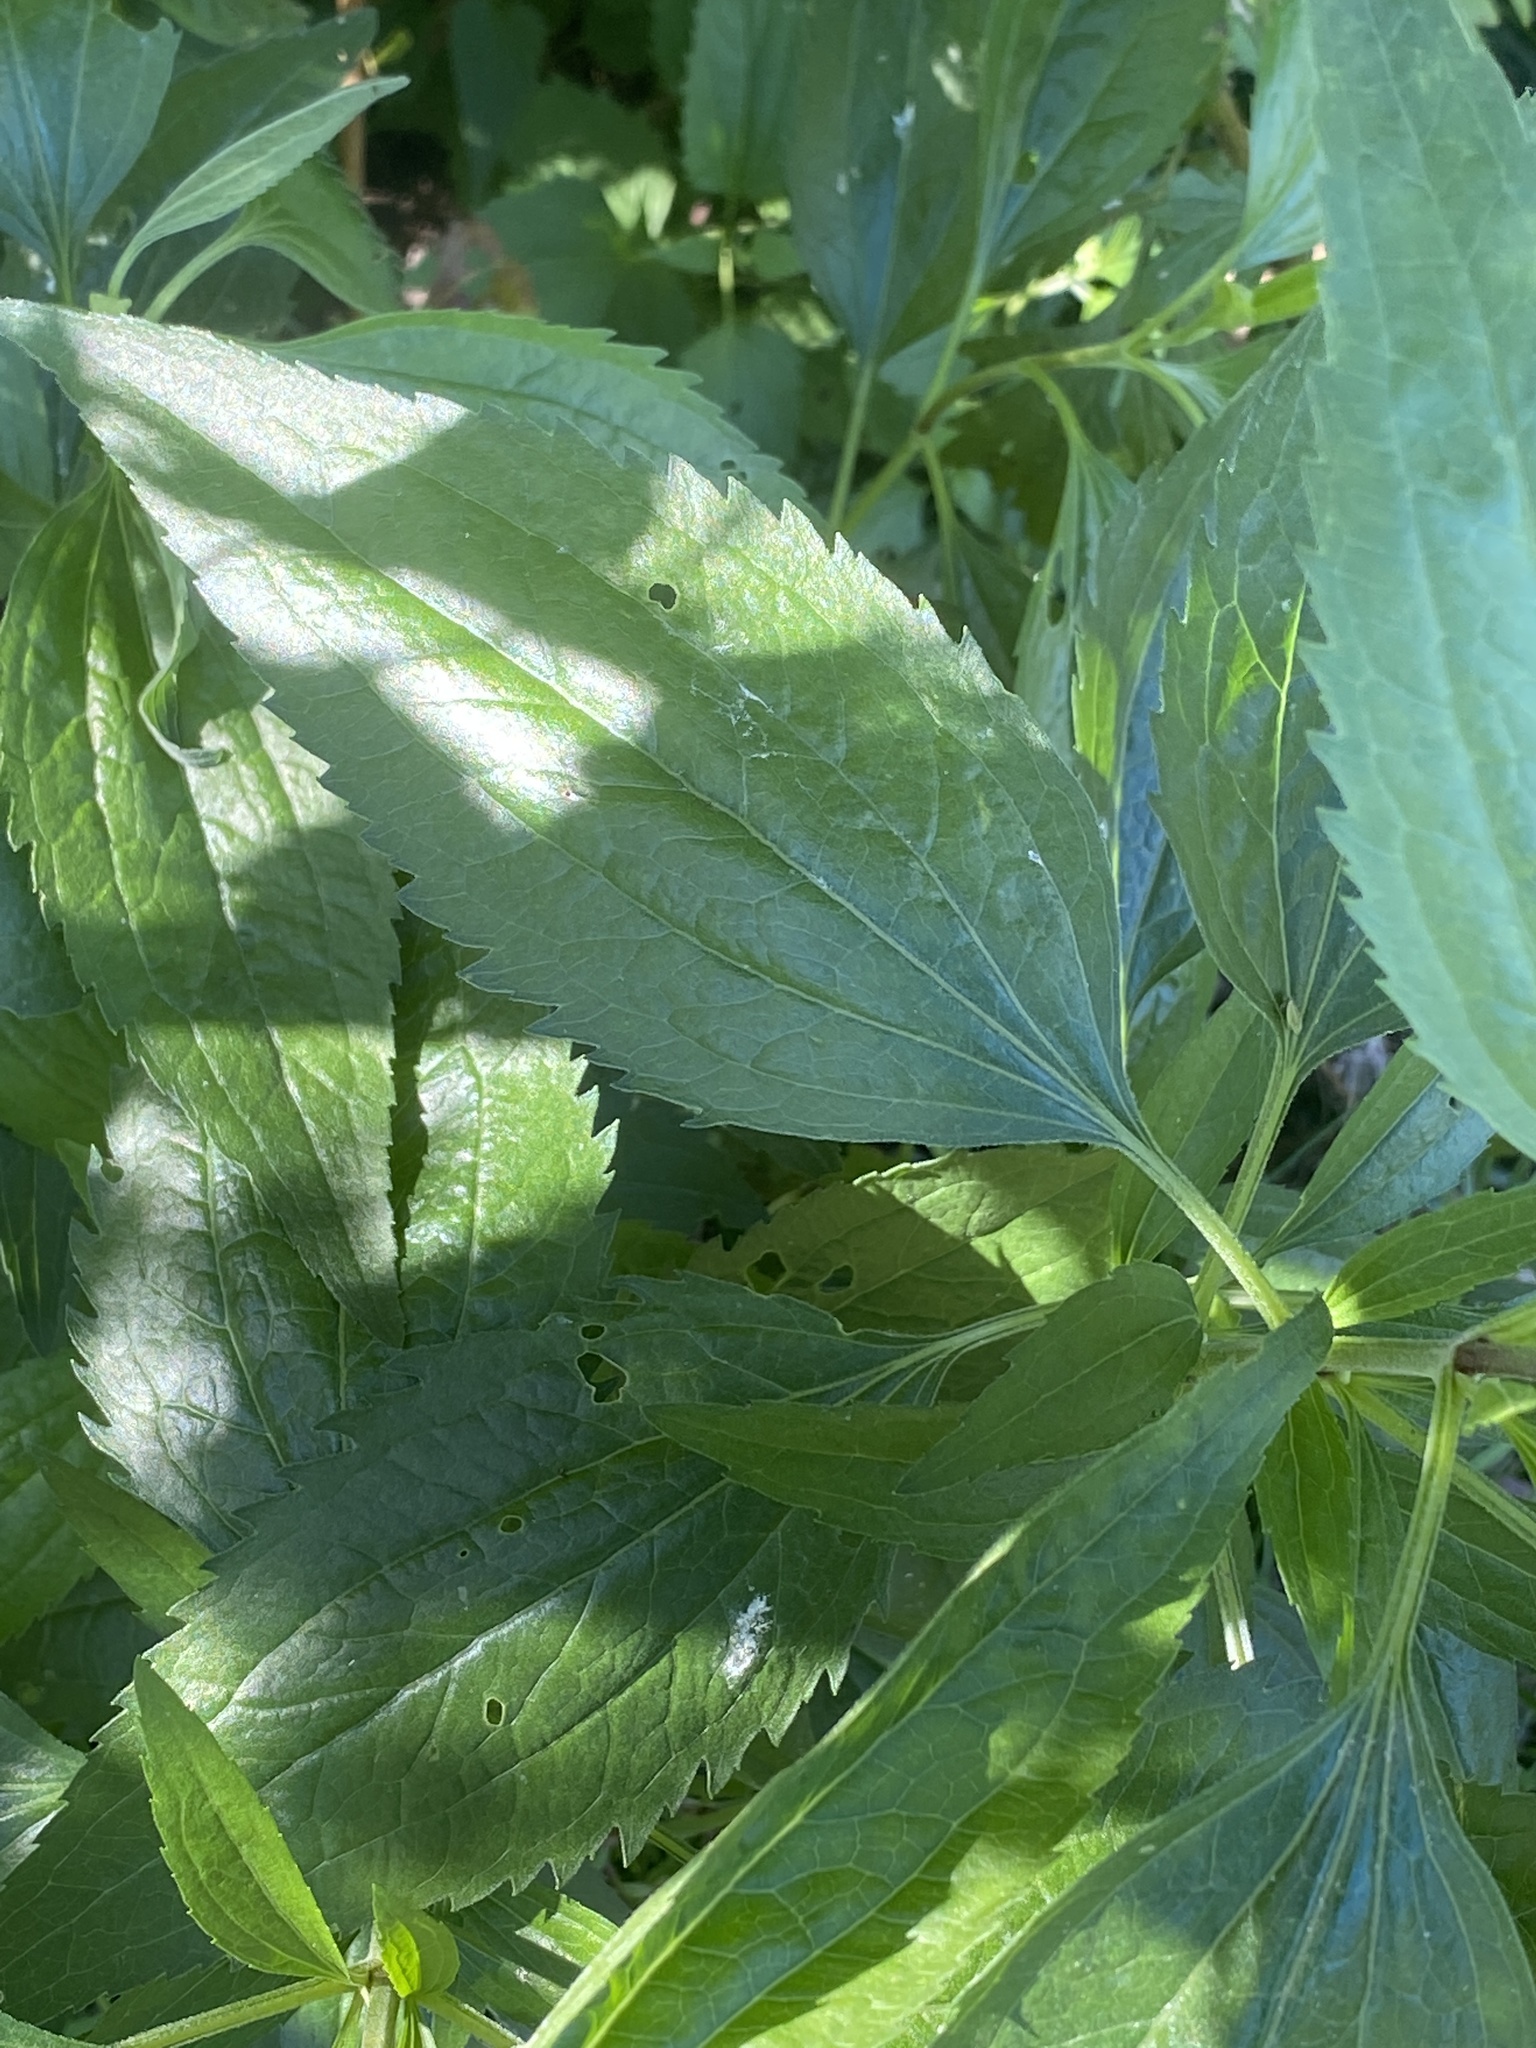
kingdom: Plantae
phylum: Tracheophyta
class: Magnoliopsida
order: Asterales
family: Asteraceae
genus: Eupatorium
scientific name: Eupatorium serotinum
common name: Late boneset
